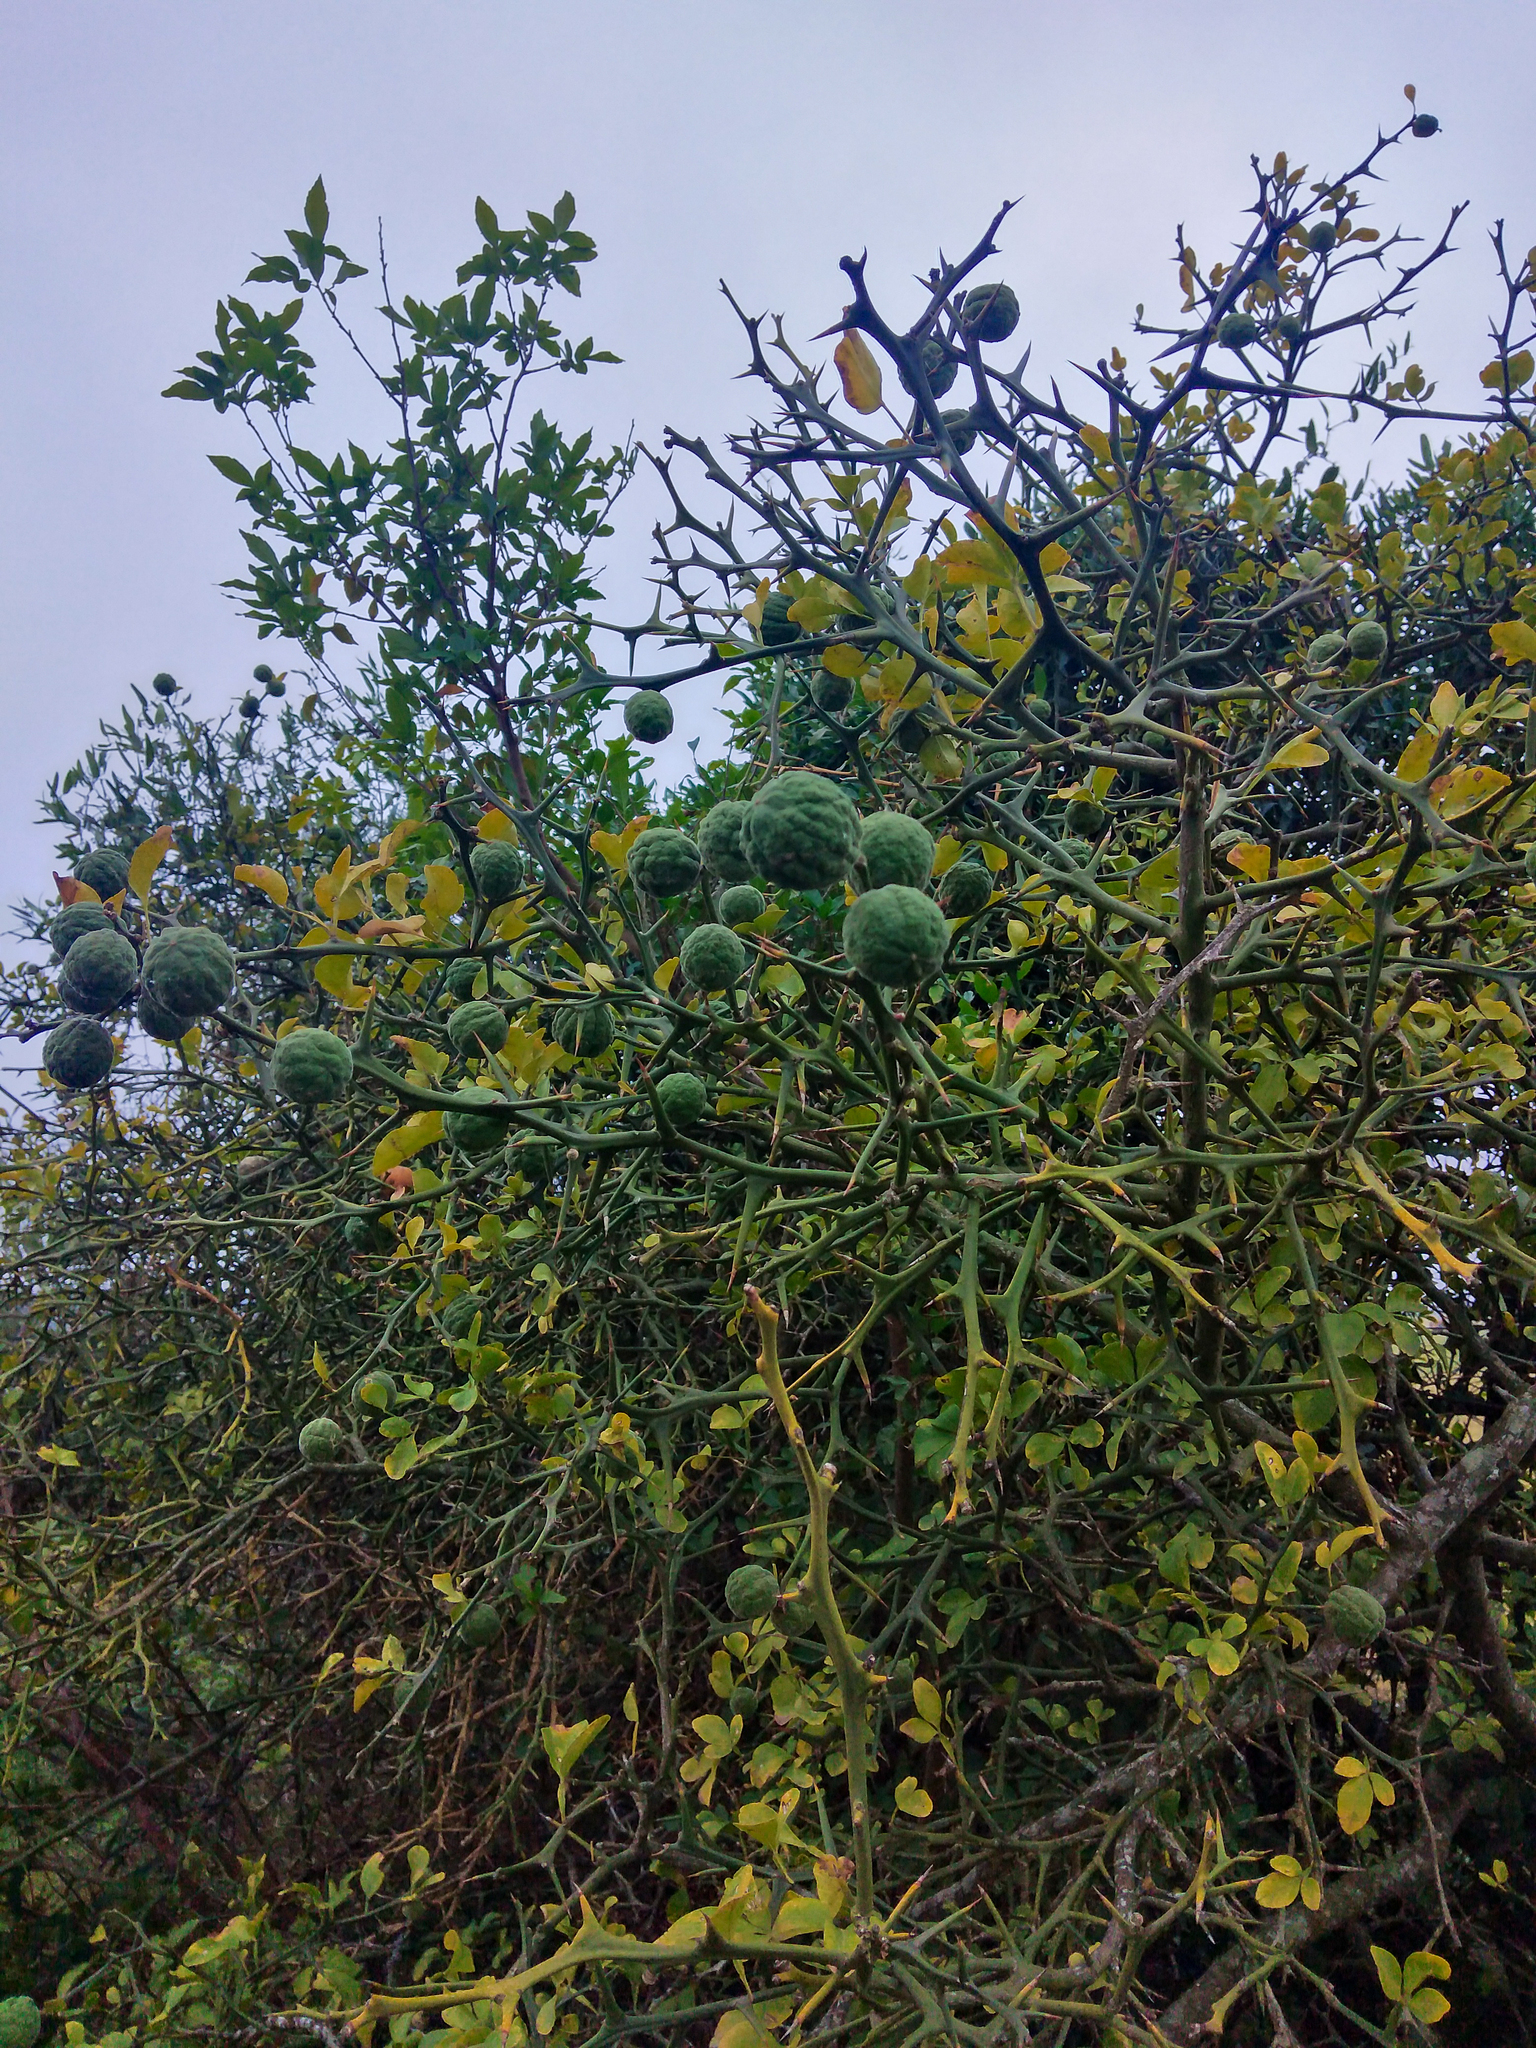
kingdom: Plantae
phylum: Tracheophyta
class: Magnoliopsida
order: Sapindales
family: Rutaceae
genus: Citrus
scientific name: Citrus trifoliata
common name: Japanese bitter-orange
